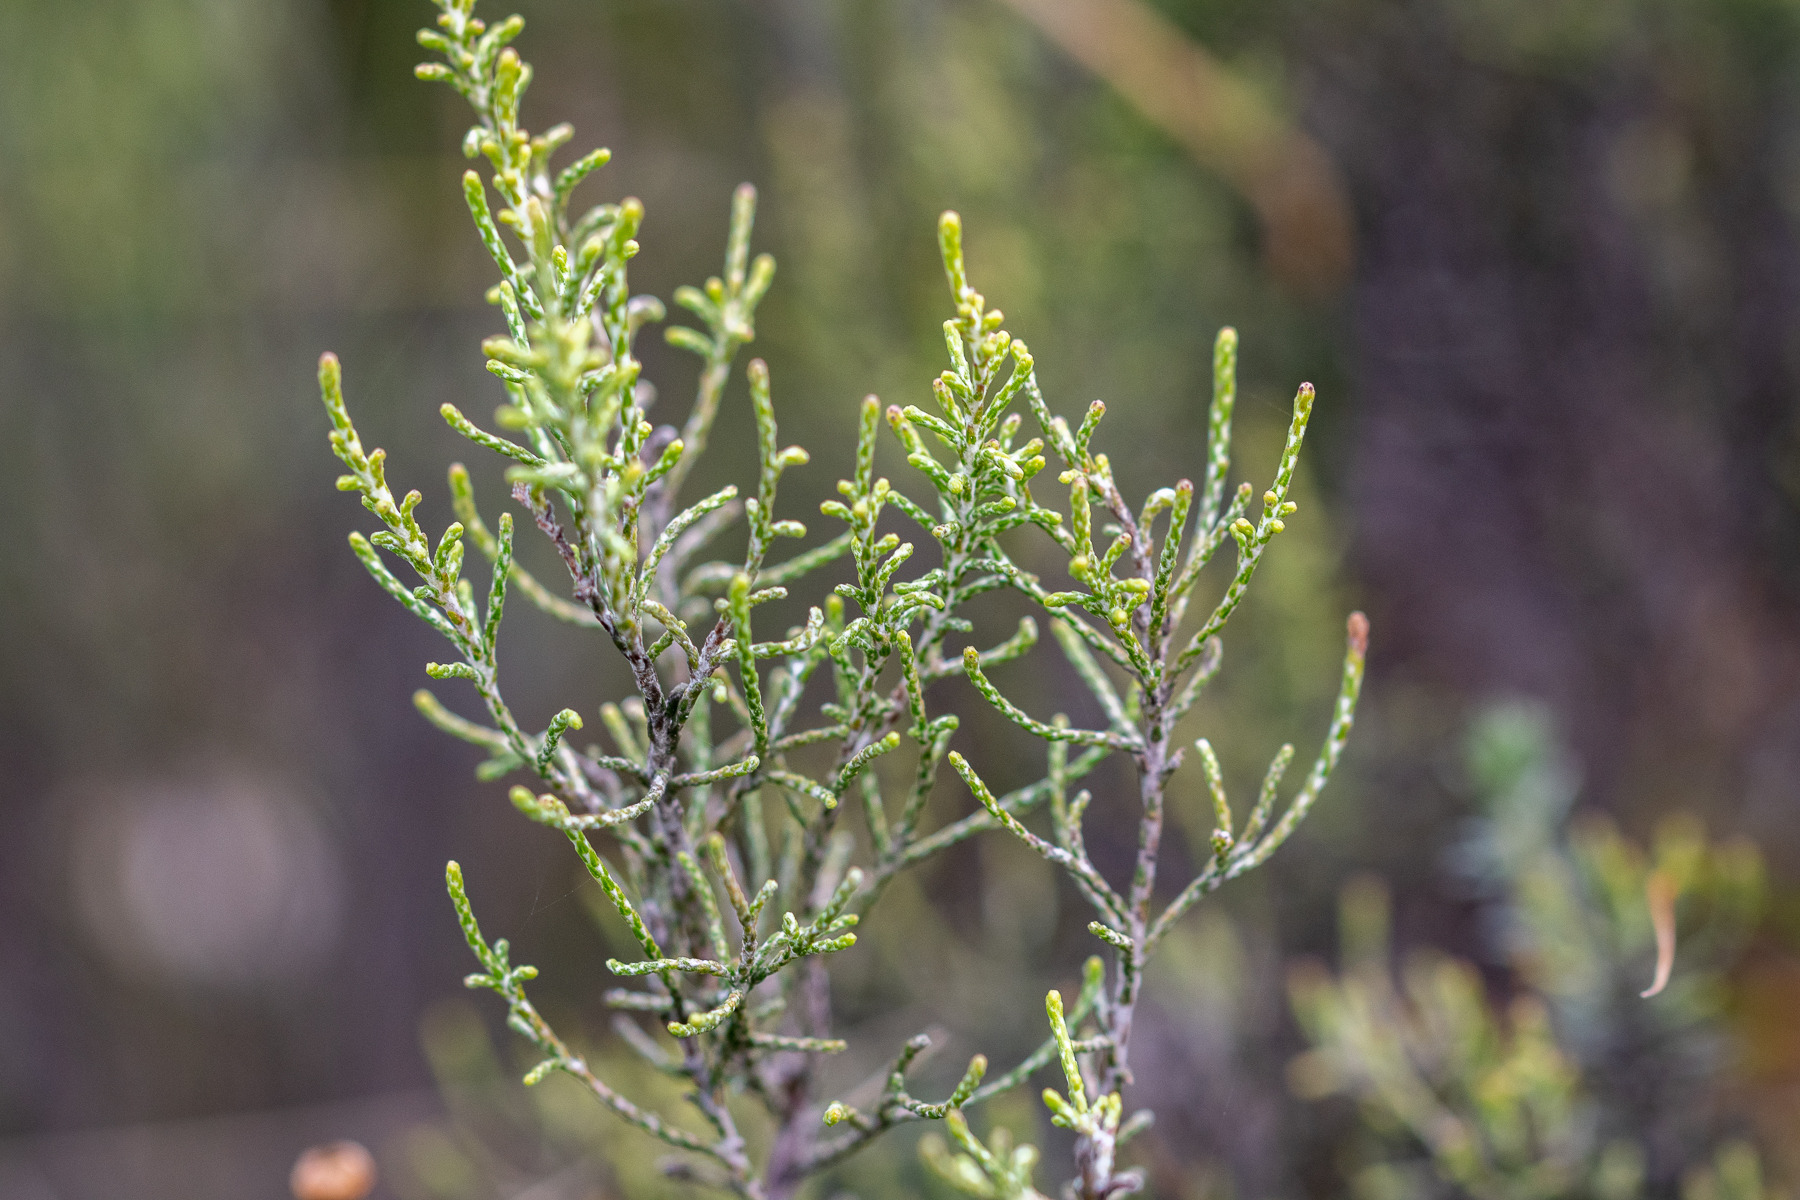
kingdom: Plantae
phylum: Tracheophyta
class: Magnoliopsida
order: Asterales
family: Asteraceae
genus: Dicerothamnus
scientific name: Dicerothamnus rhinocerotis
